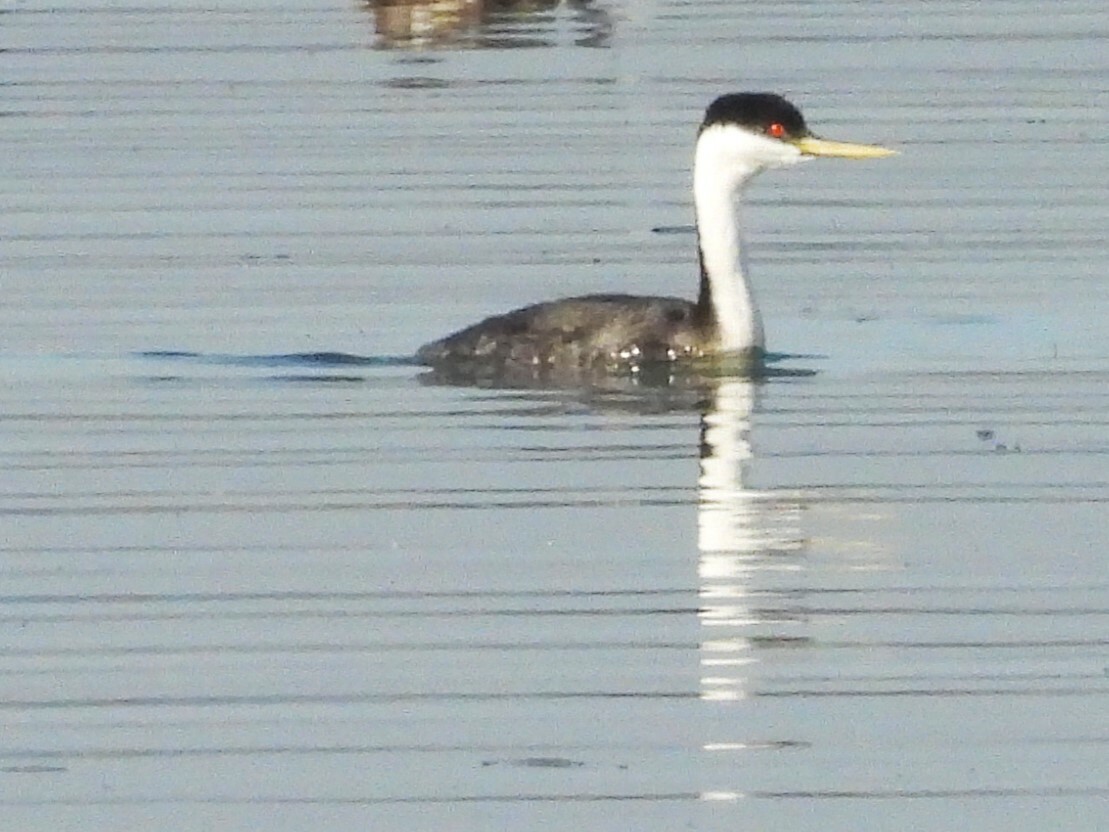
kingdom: Animalia
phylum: Chordata
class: Aves
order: Podicipediformes
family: Podicipedidae
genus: Aechmophorus
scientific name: Aechmophorus occidentalis
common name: Western grebe
